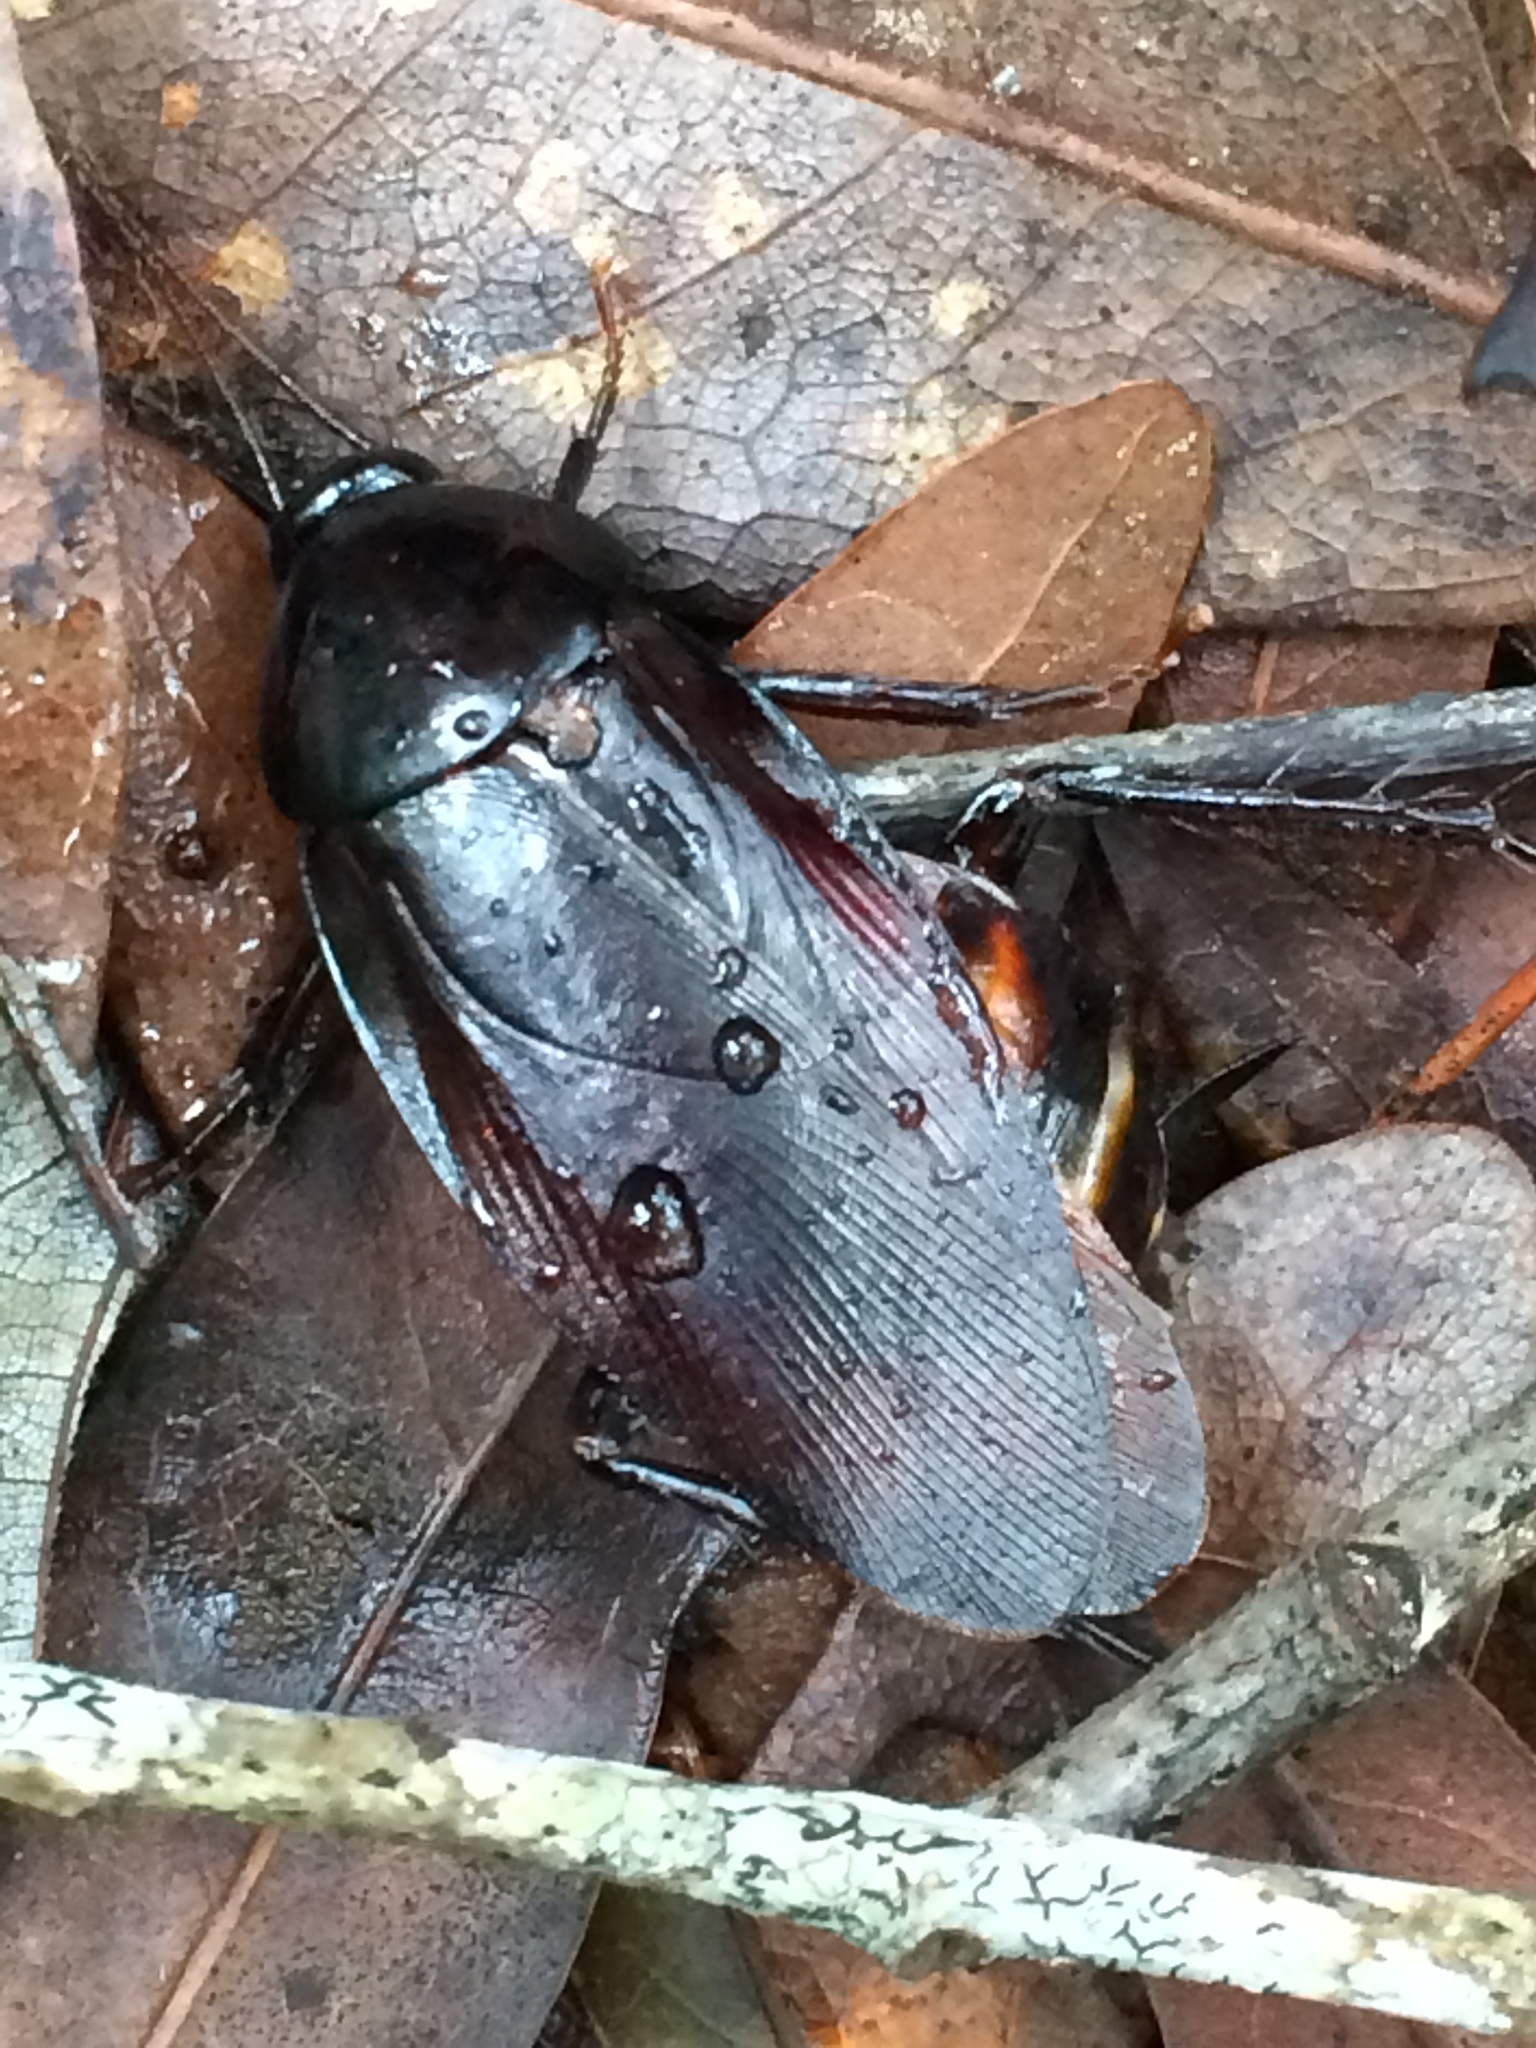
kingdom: Animalia
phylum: Arthropoda
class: Insecta
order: Blattodea
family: Blattidae
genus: Periplaneta
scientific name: Periplaneta fuliginosa
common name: Smokeybrown cockroad
